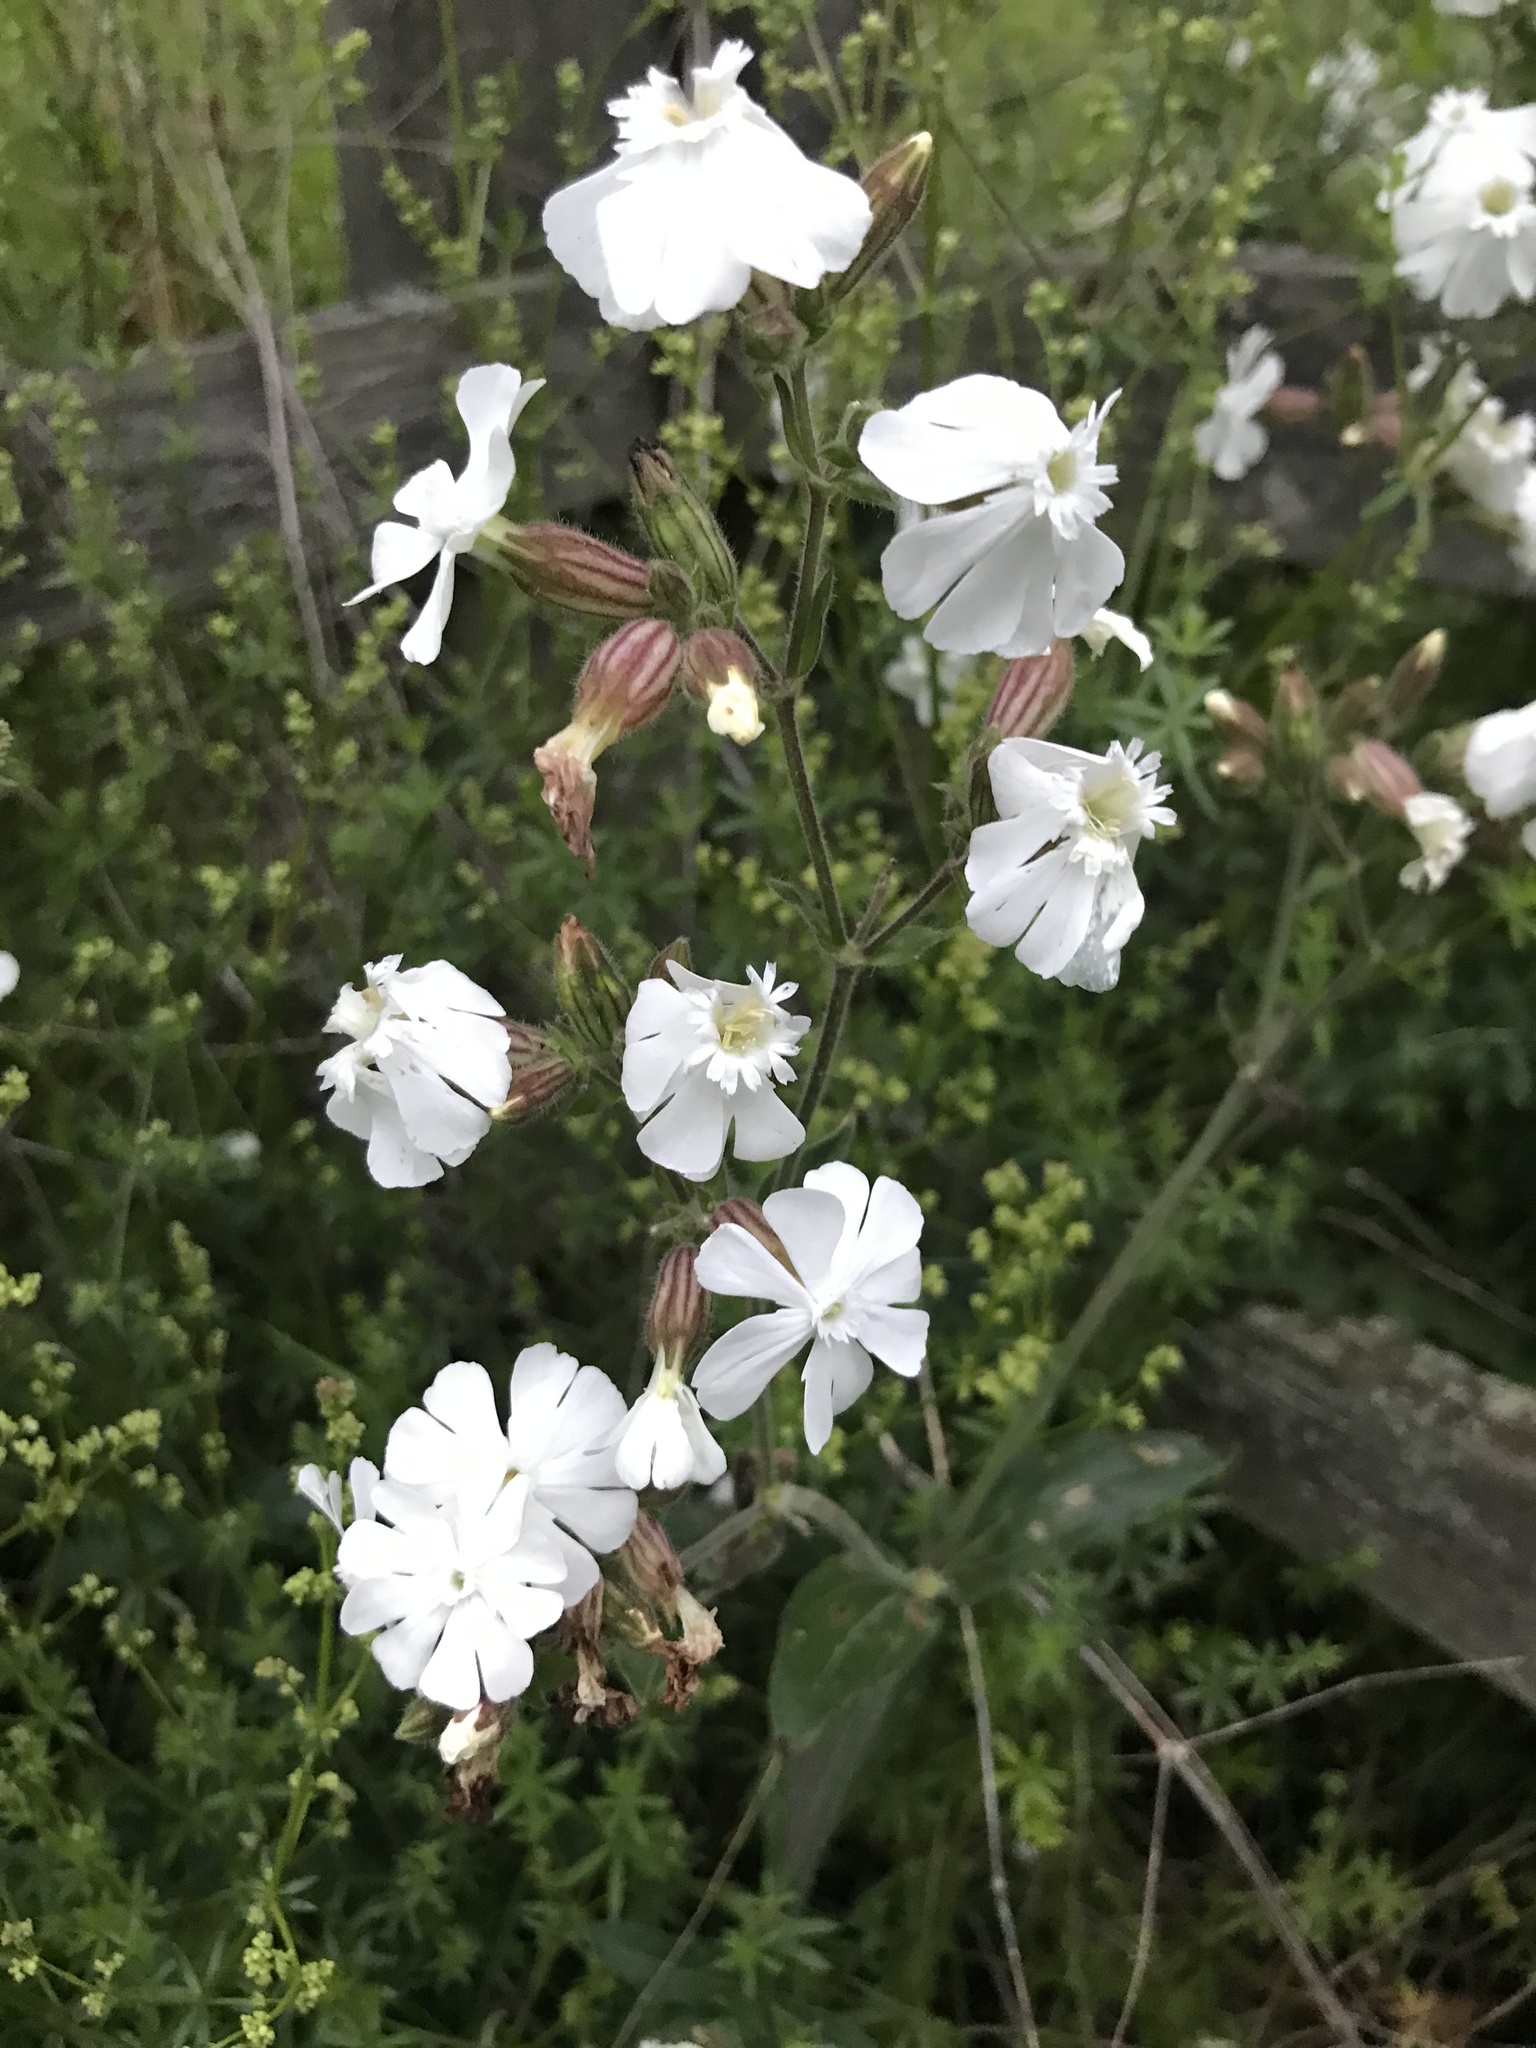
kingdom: Plantae
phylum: Tracheophyta
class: Magnoliopsida
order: Caryophyllales
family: Caryophyllaceae
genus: Silene
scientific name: Silene latifolia
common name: White campion
